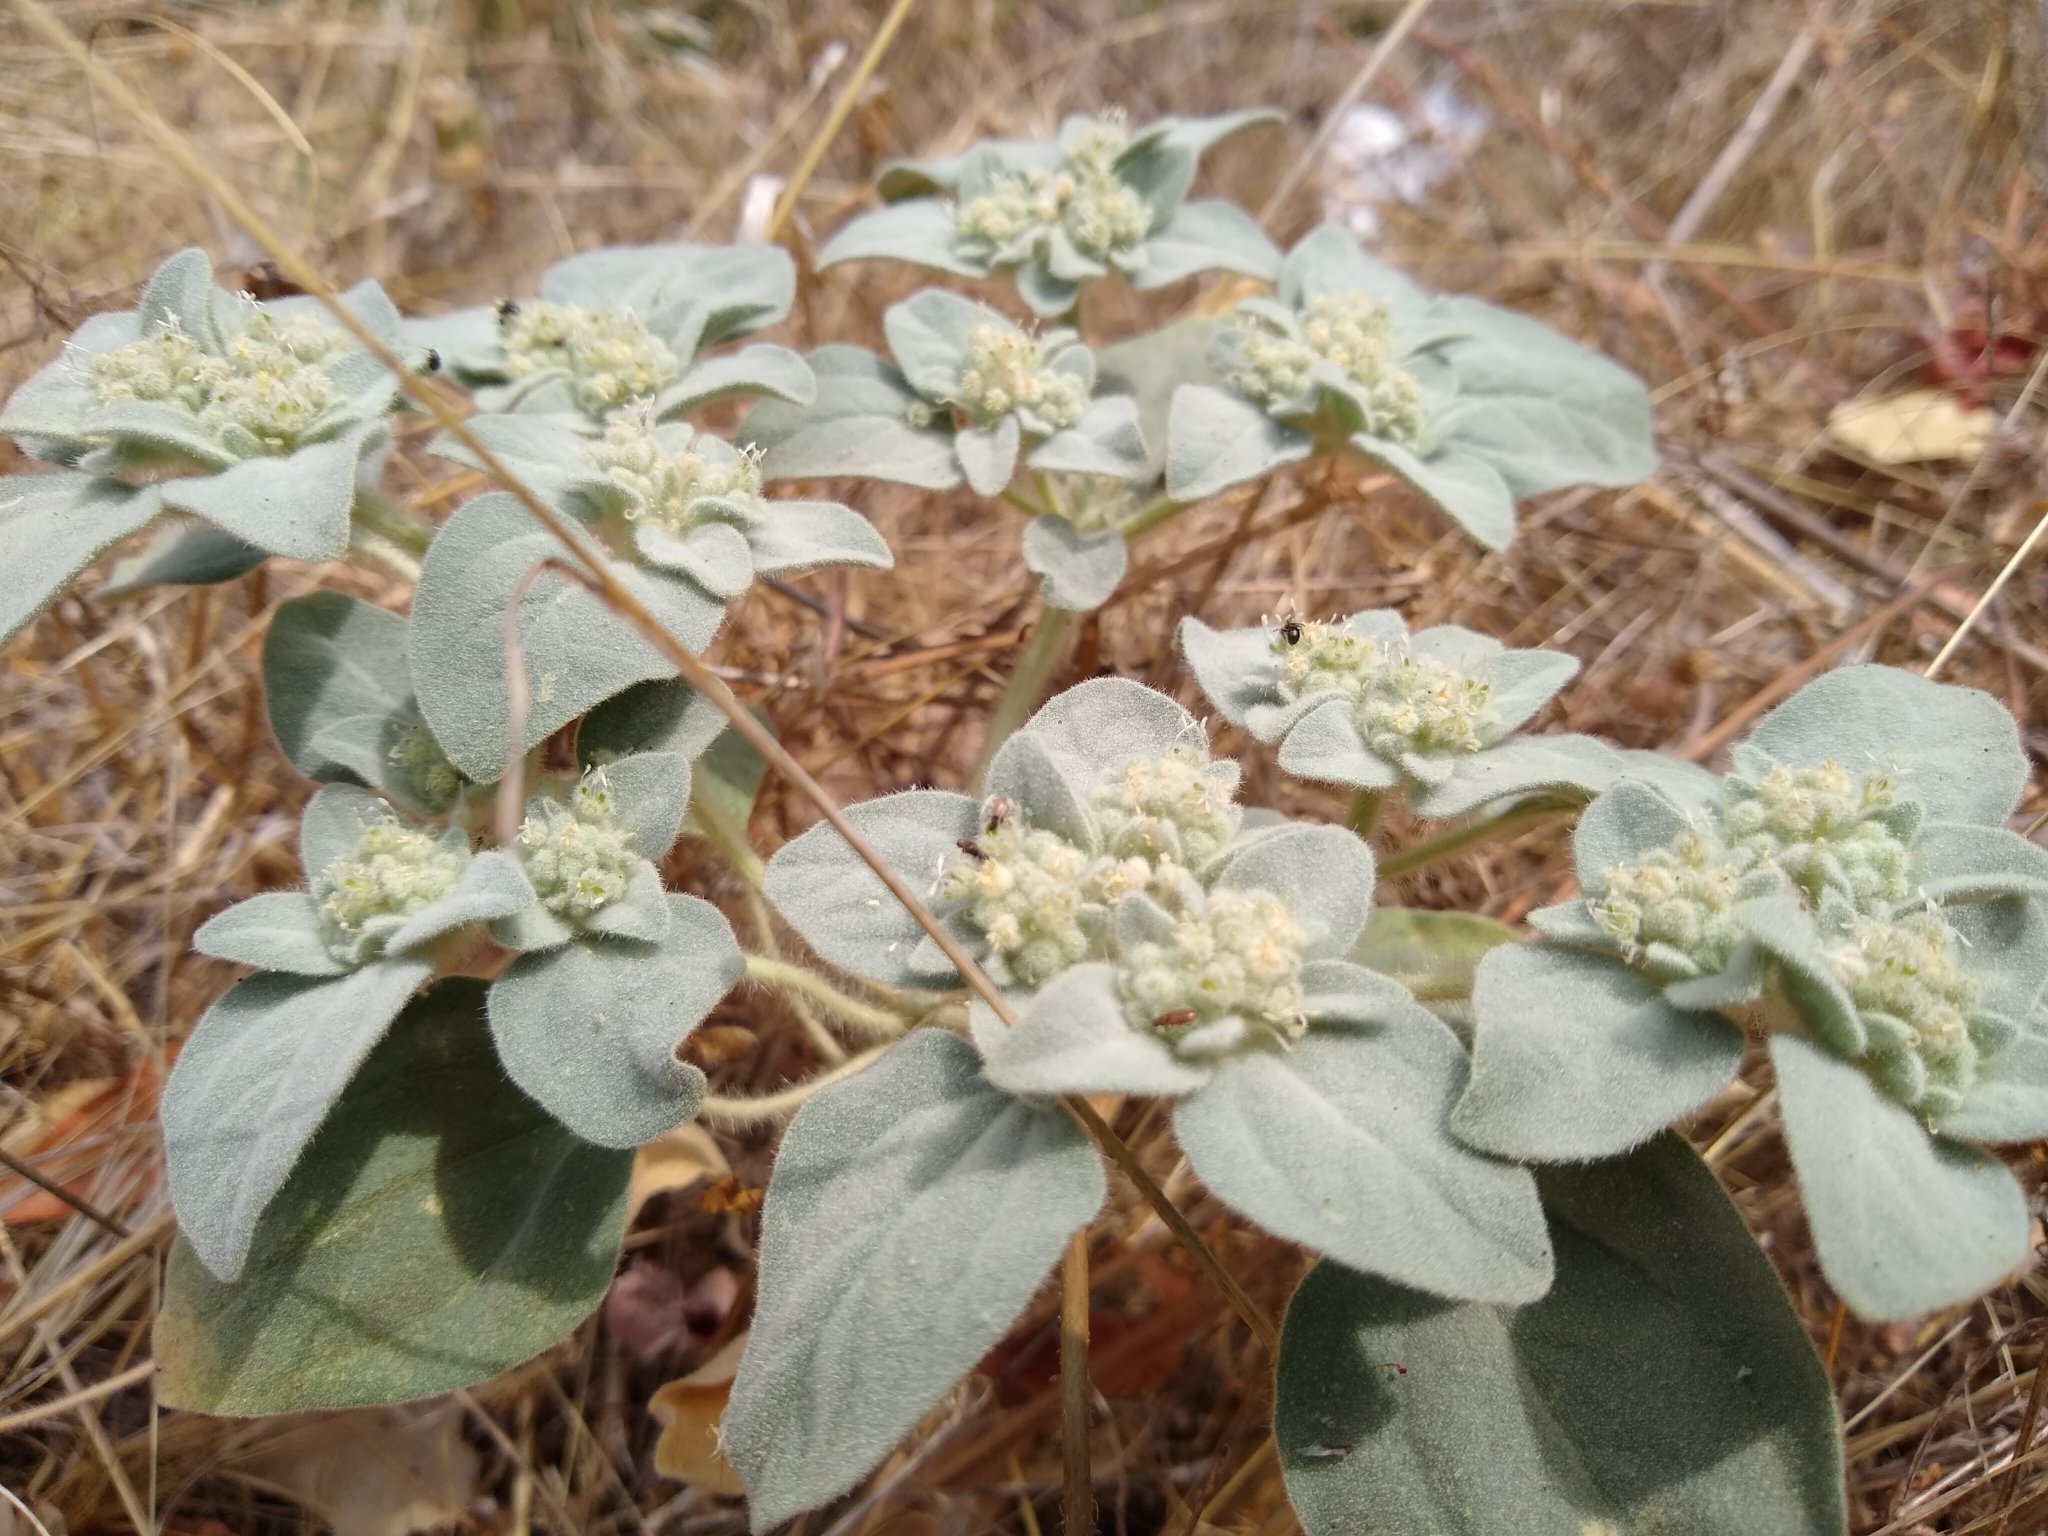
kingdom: Plantae
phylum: Tracheophyta
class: Magnoliopsida
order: Malpighiales
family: Euphorbiaceae
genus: Croton
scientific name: Croton setiger
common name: Dove weed
